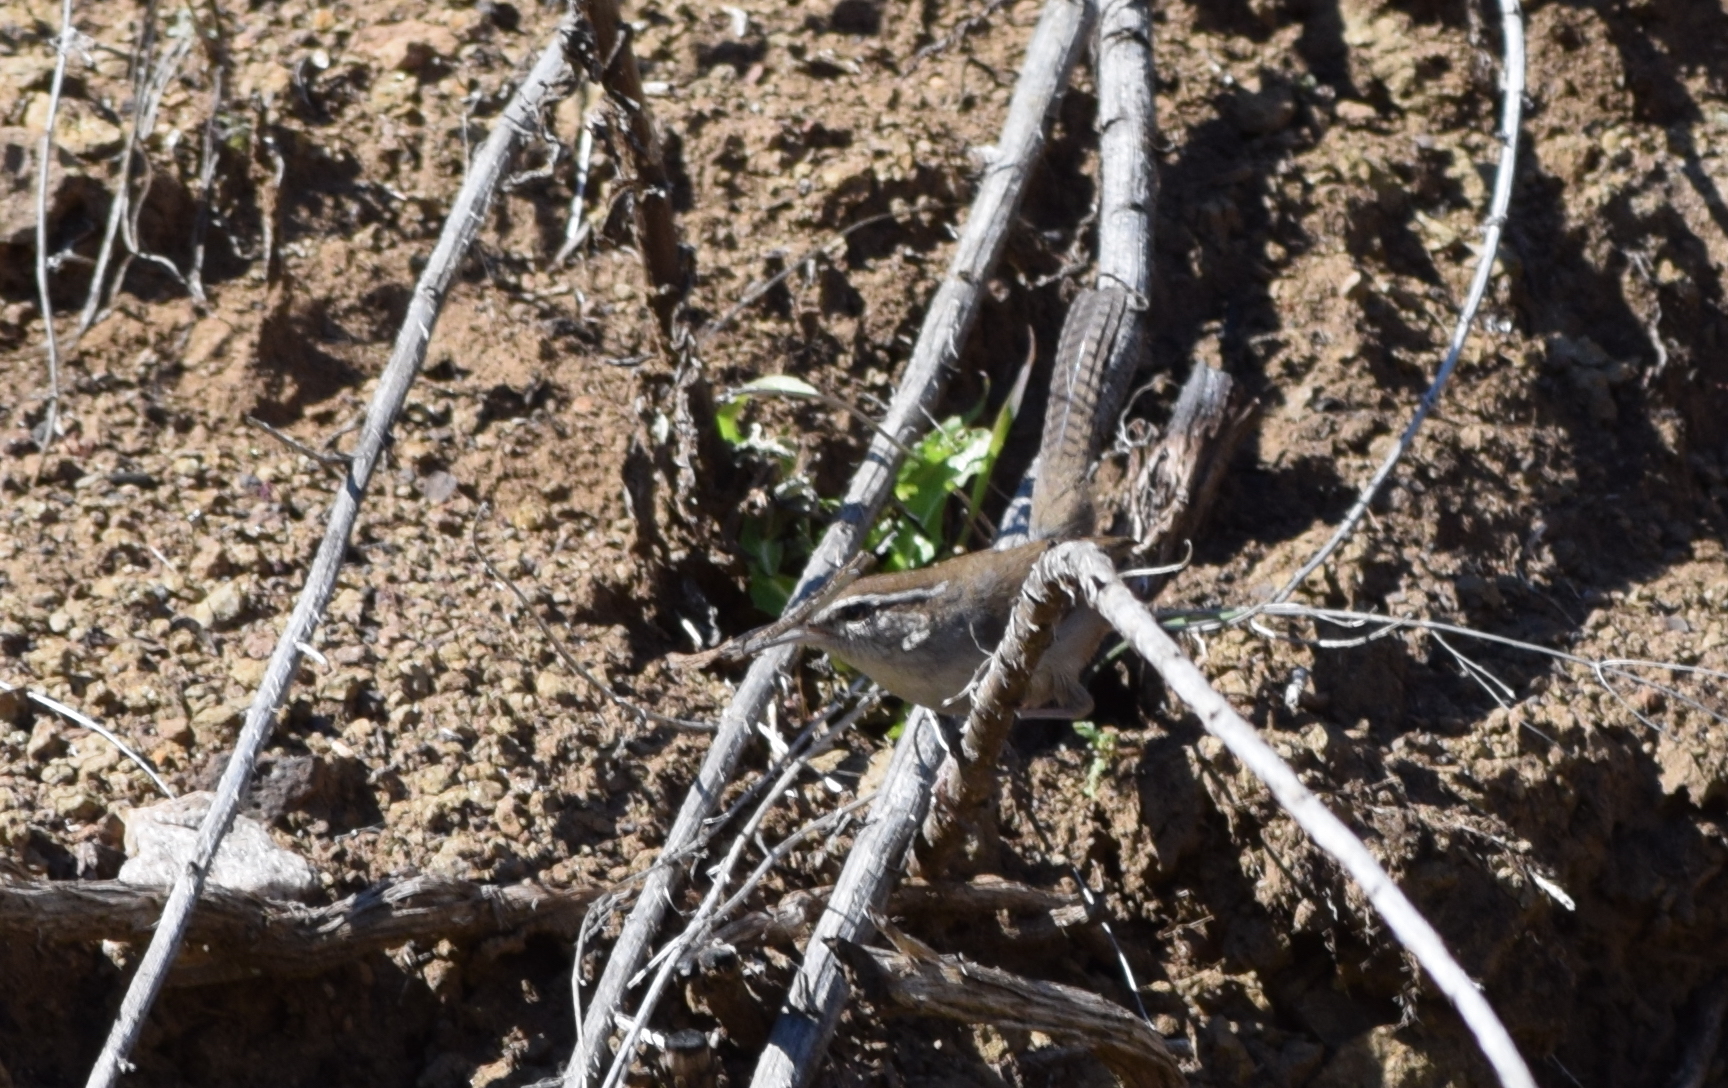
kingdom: Animalia
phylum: Chordata
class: Aves
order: Passeriformes
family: Troglodytidae
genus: Thryomanes
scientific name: Thryomanes bewickii
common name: Bewick's wren
